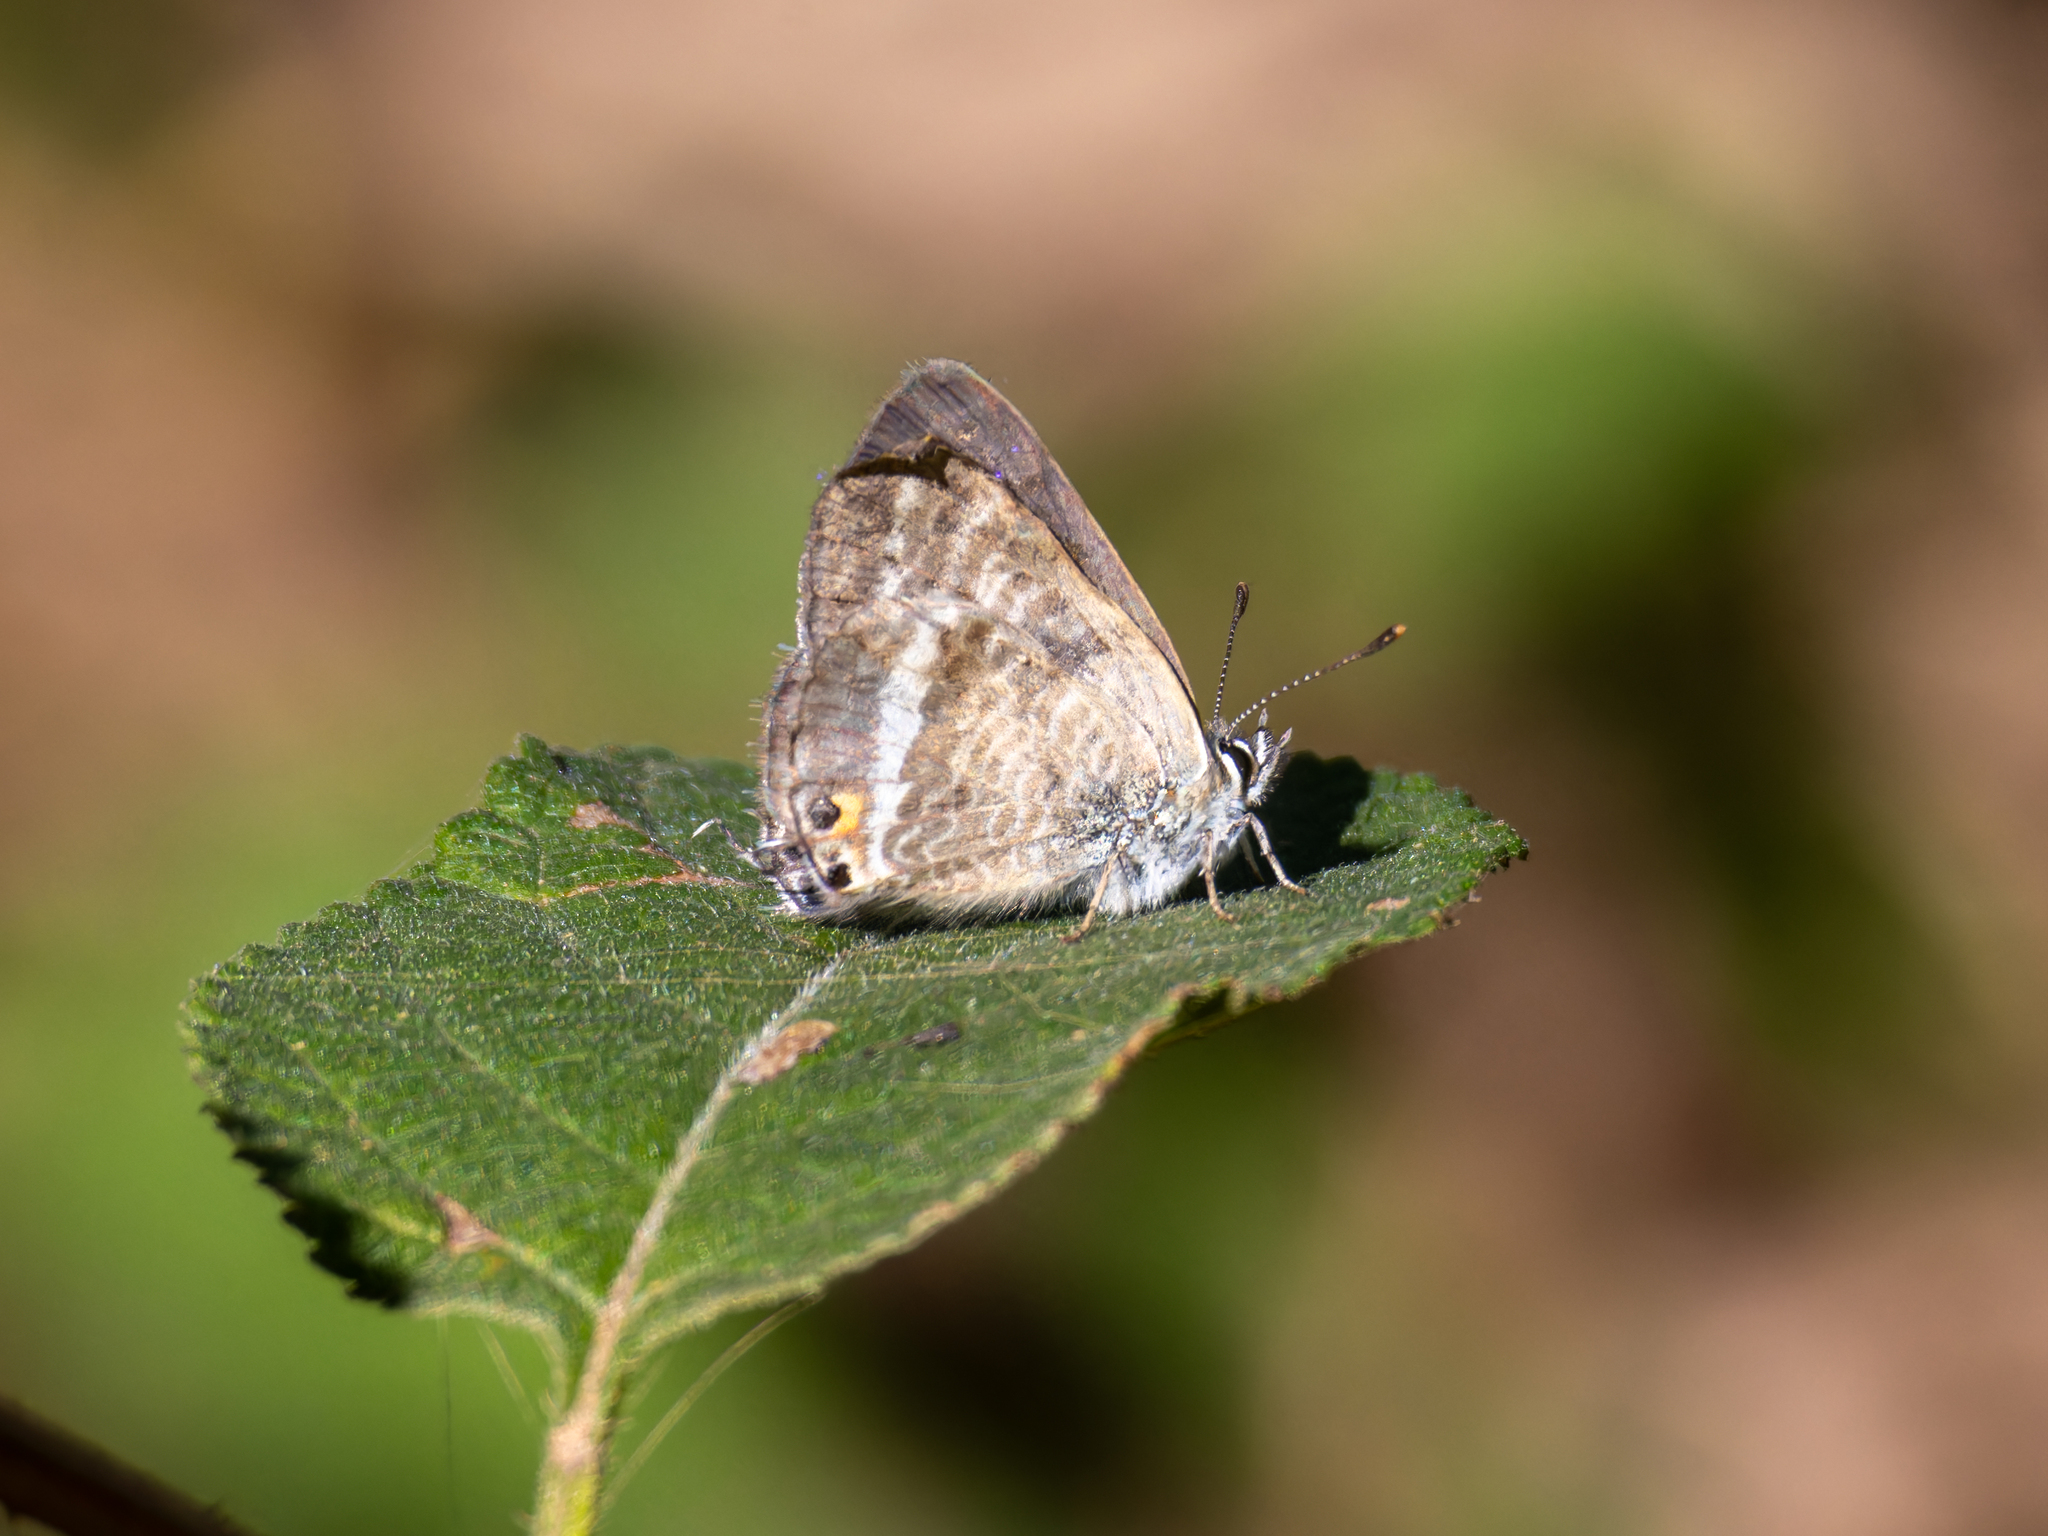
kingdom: Animalia
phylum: Arthropoda
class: Insecta
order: Lepidoptera
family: Lycaenidae
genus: Lampides
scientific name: Lampides boeticus
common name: Long-tailed blue
